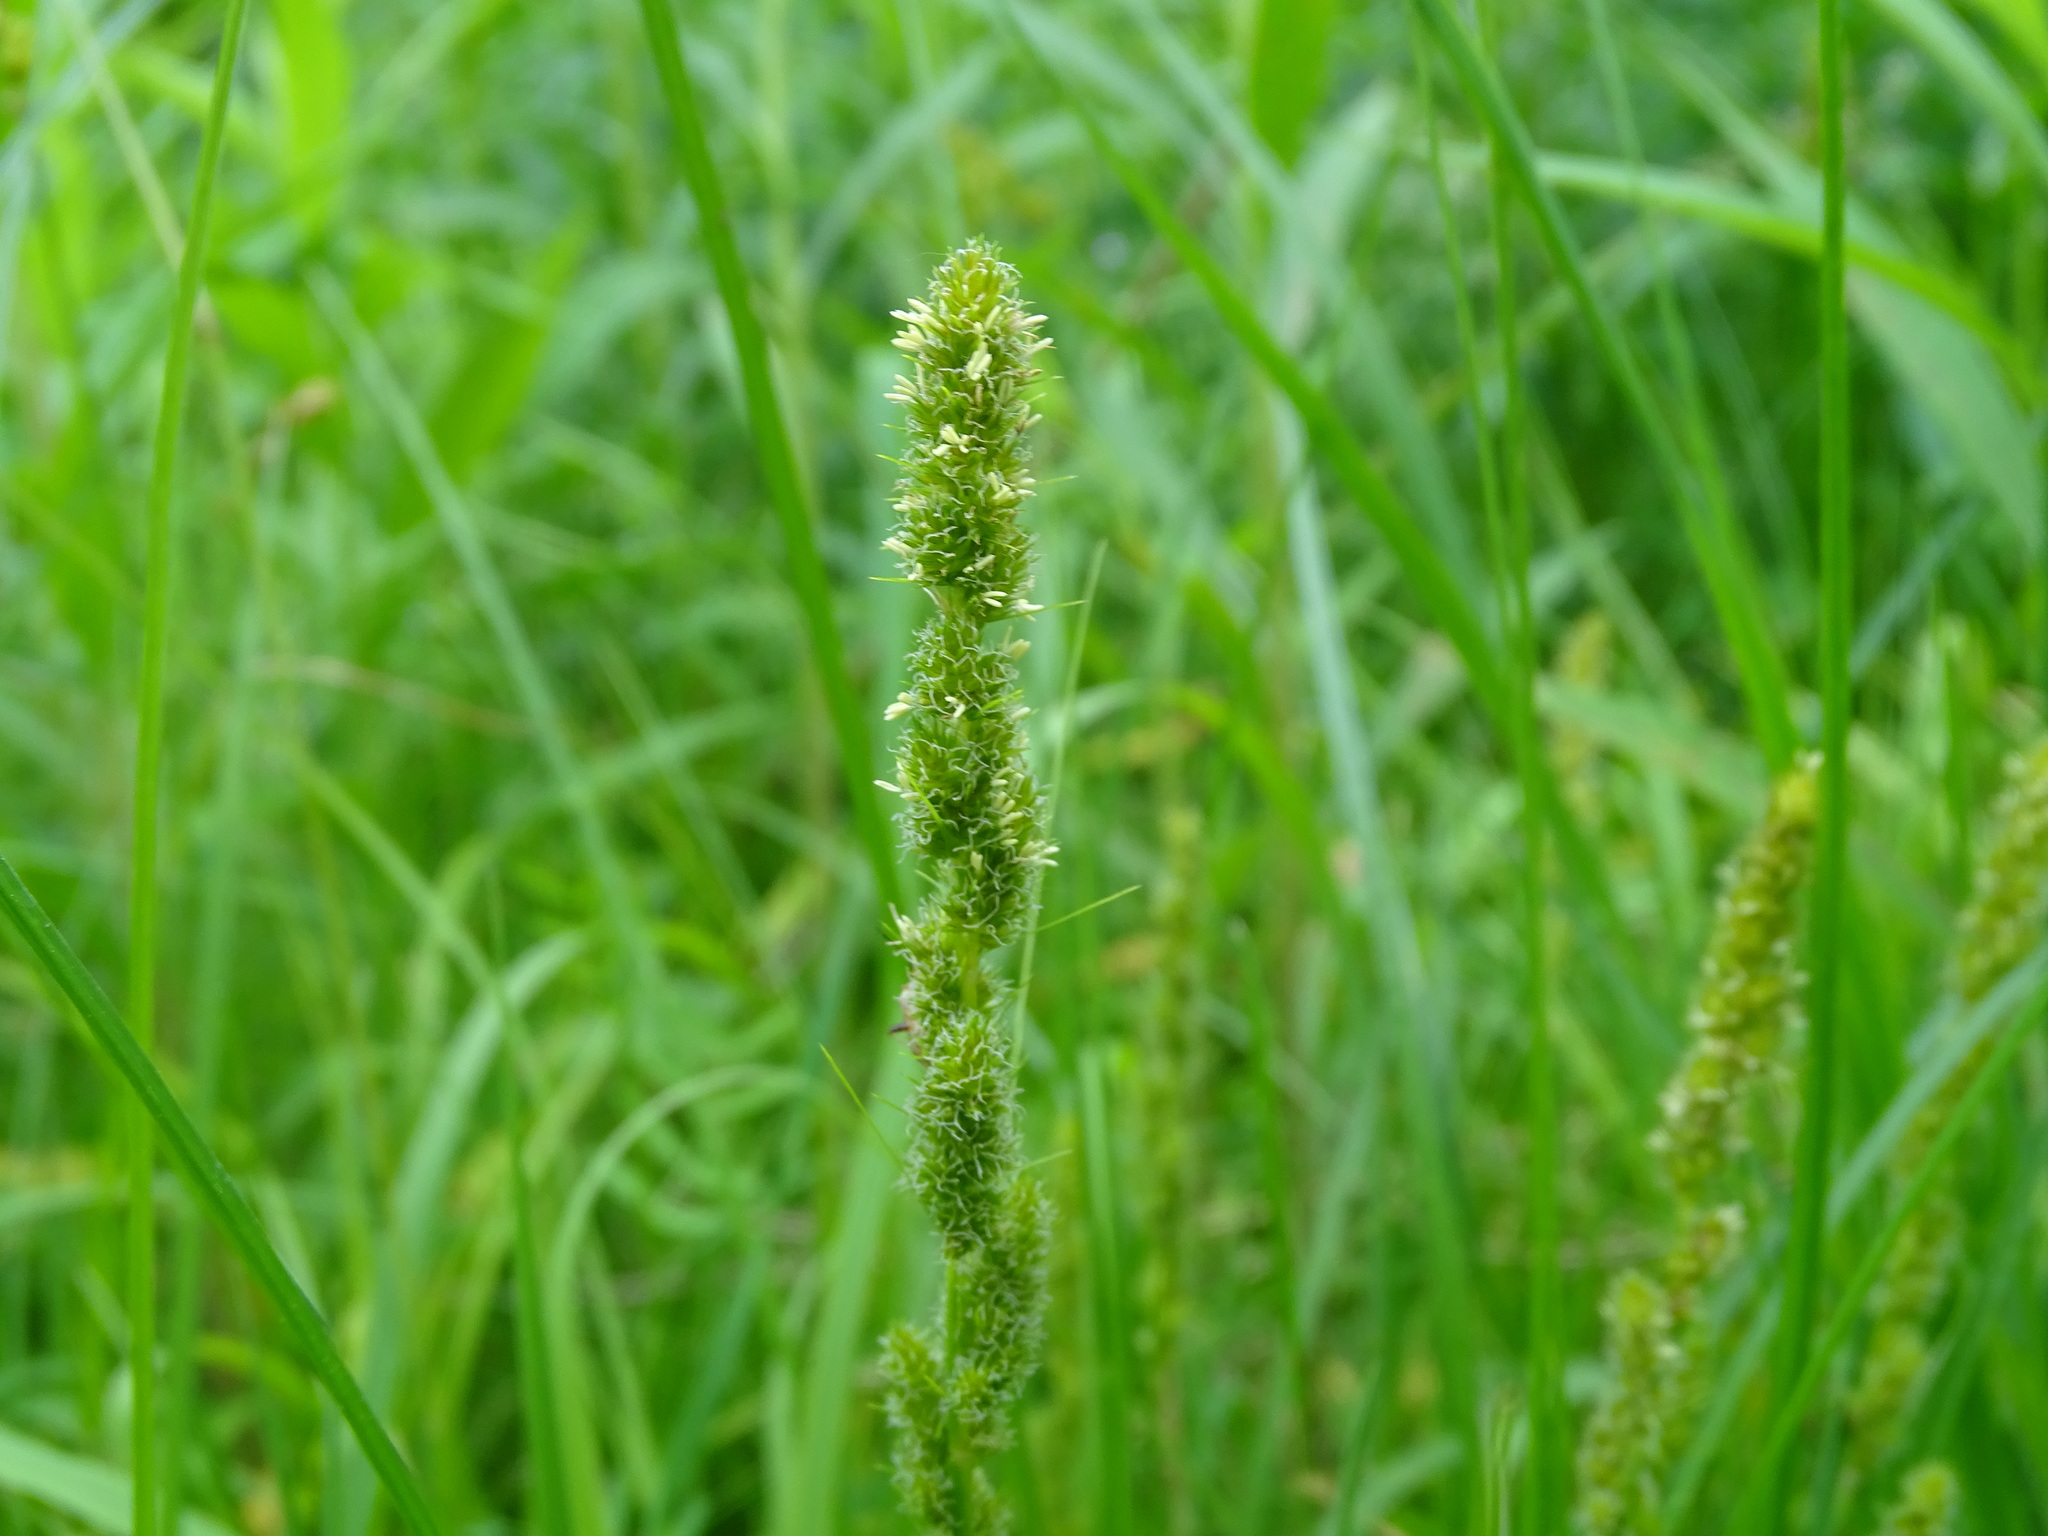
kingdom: Plantae
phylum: Tracheophyta
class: Liliopsida
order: Poales
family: Cyperaceae
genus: Carex
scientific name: Carex vulpinoidea
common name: American fox-sedge
